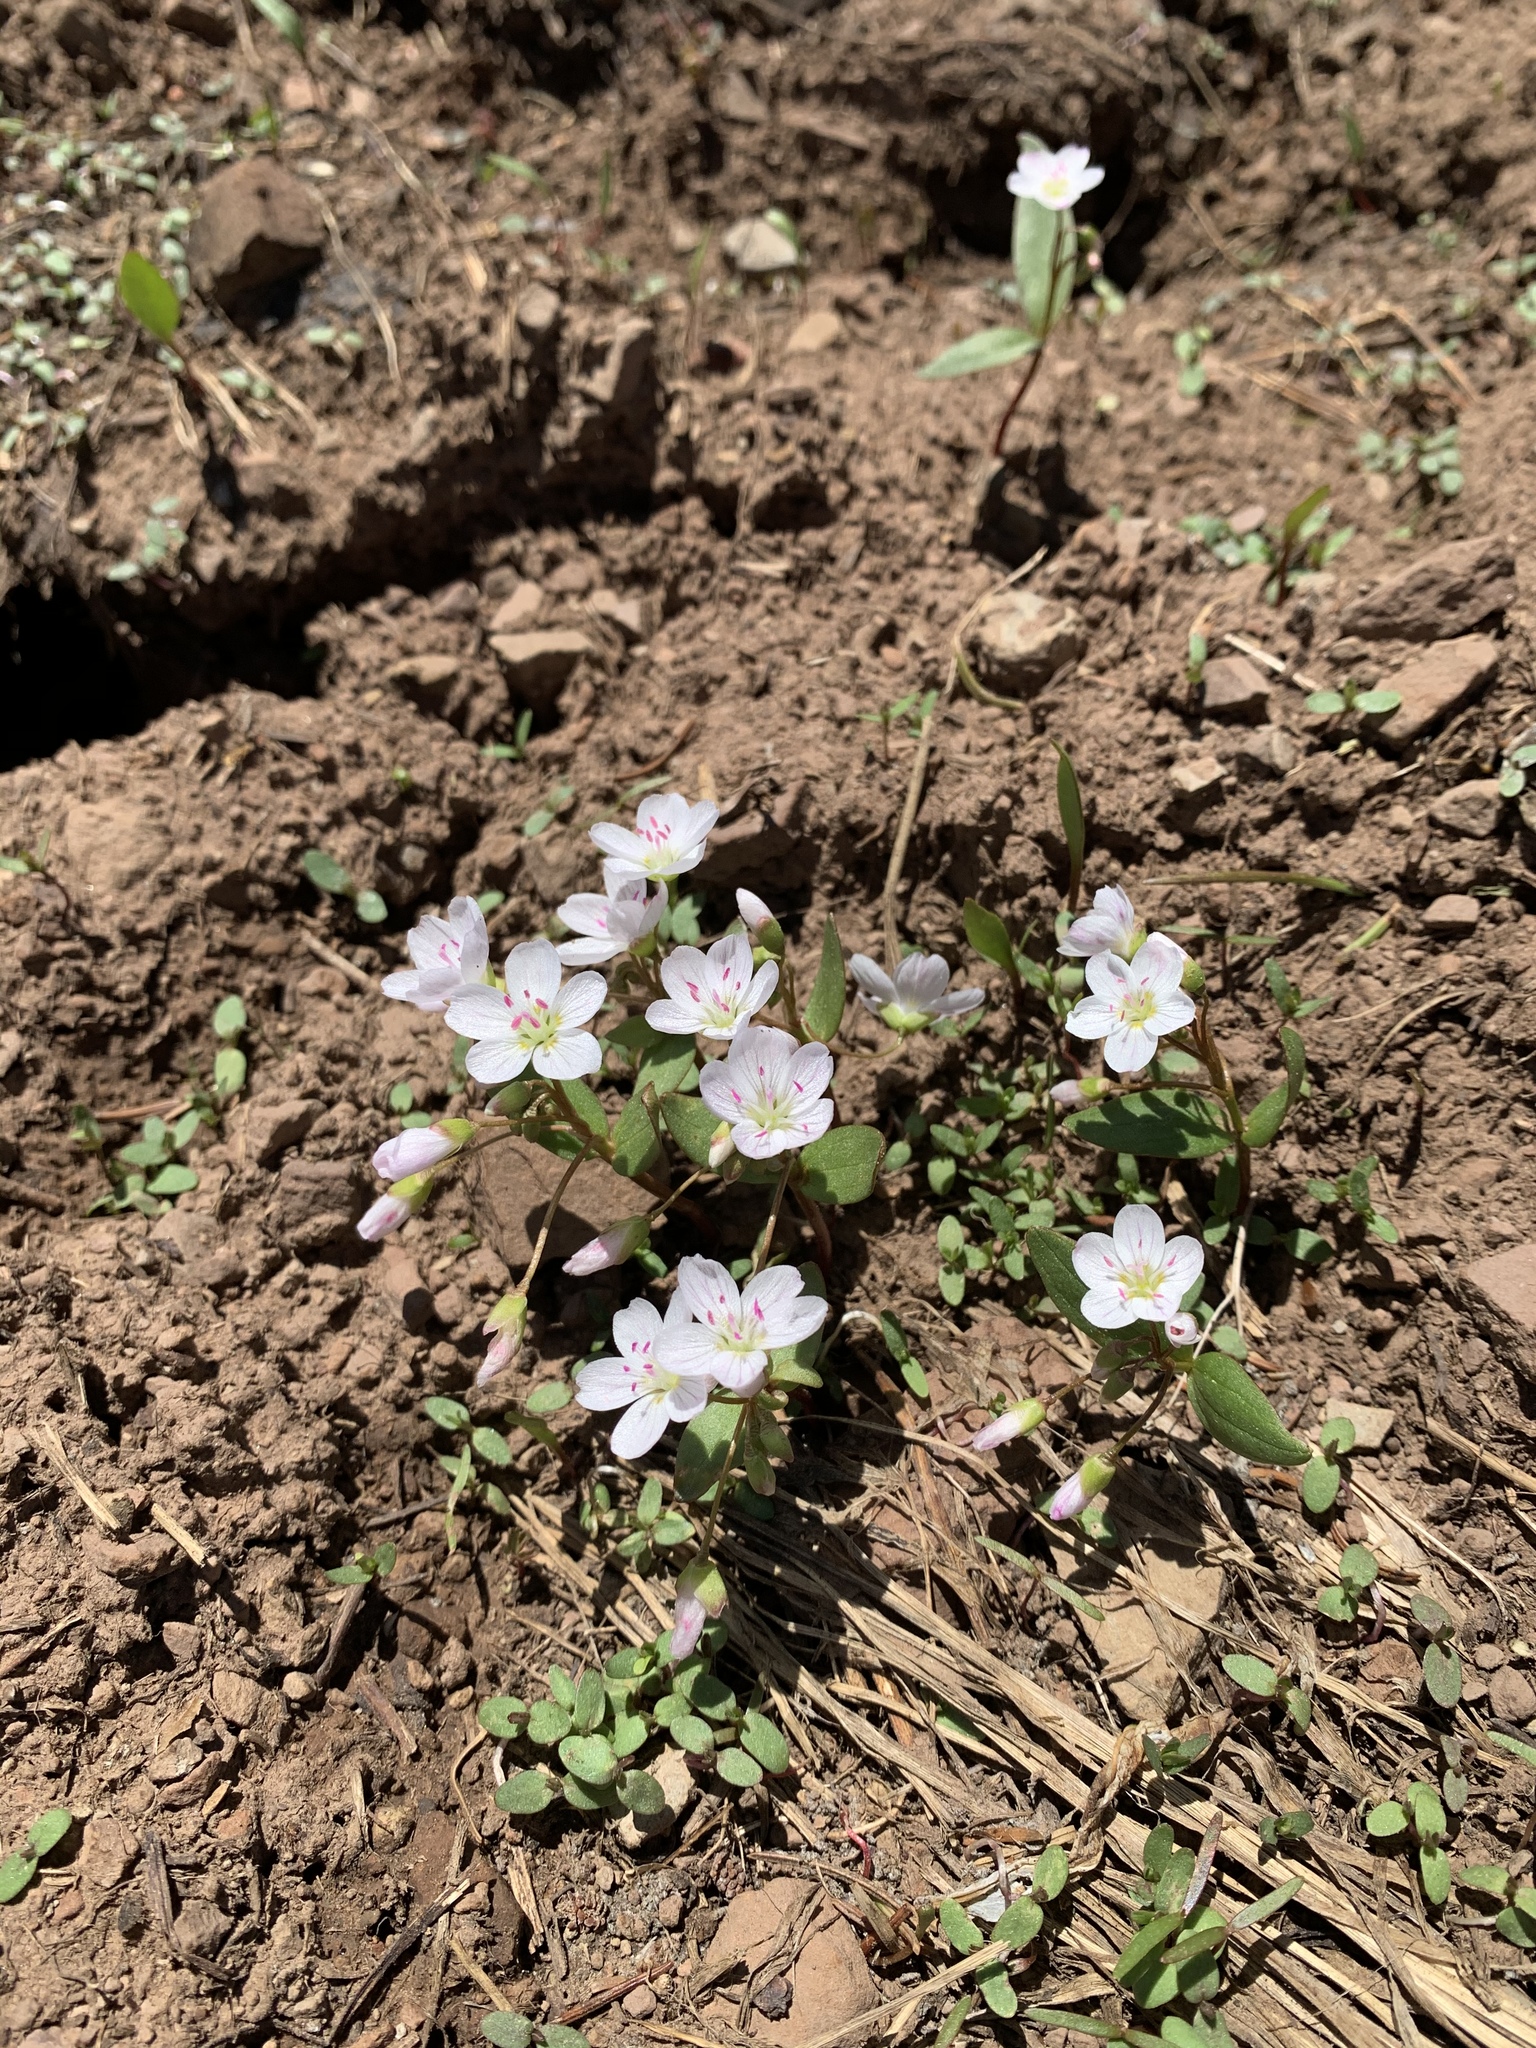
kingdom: Plantae
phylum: Tracheophyta
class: Magnoliopsida
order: Caryophyllales
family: Montiaceae
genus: Claytonia
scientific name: Claytonia lanceolata
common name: Western spring-beauty
